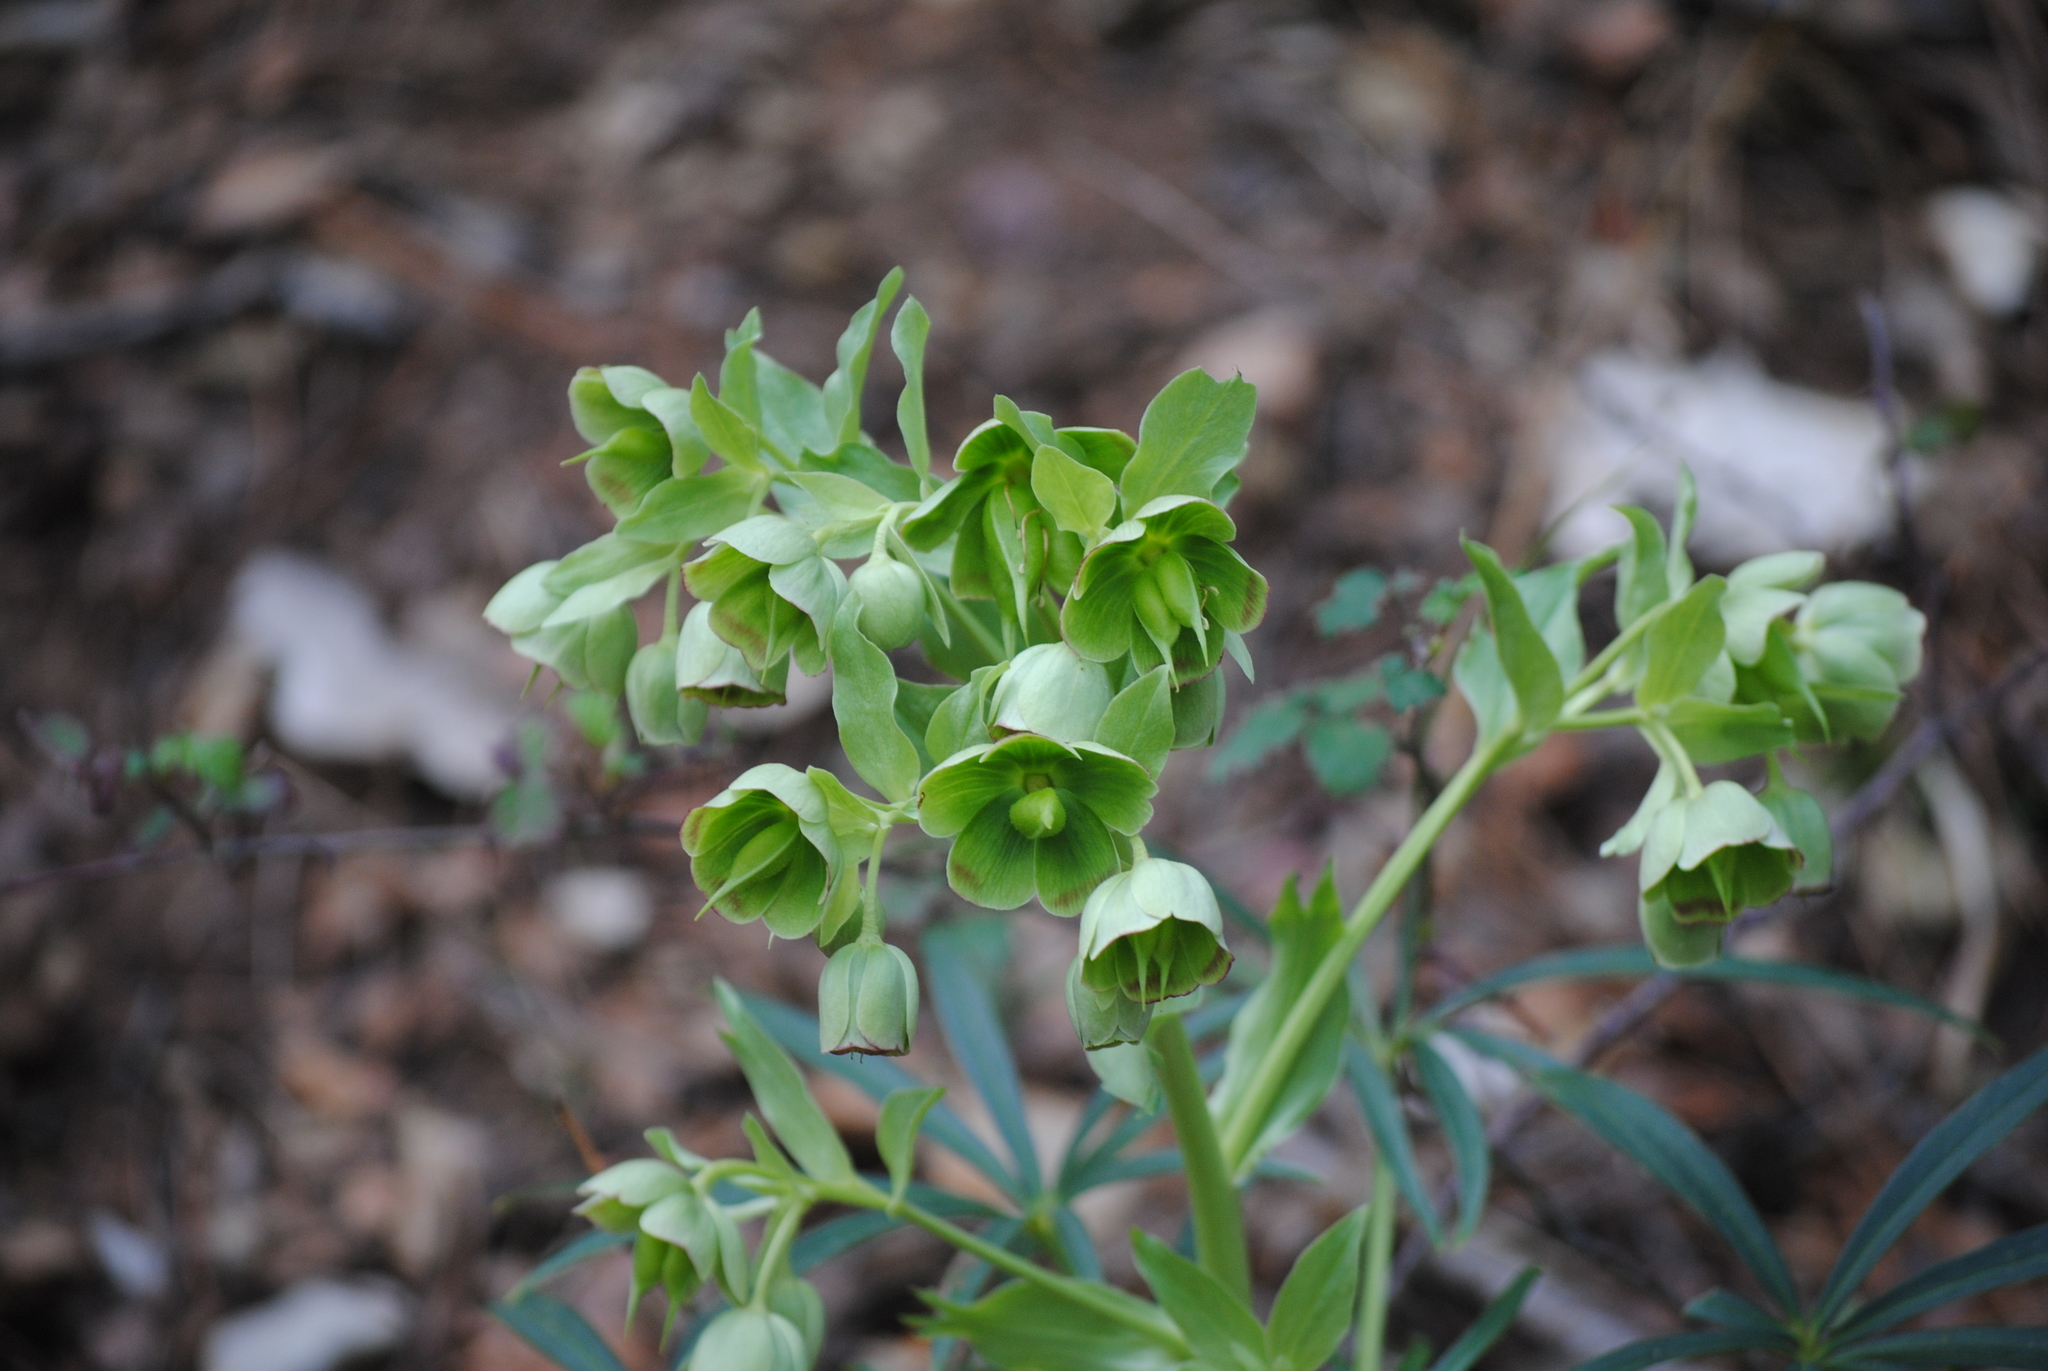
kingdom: Plantae
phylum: Tracheophyta
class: Magnoliopsida
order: Ranunculales
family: Ranunculaceae
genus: Helleborus
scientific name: Helleborus foetidus
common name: Stinking hellebore
